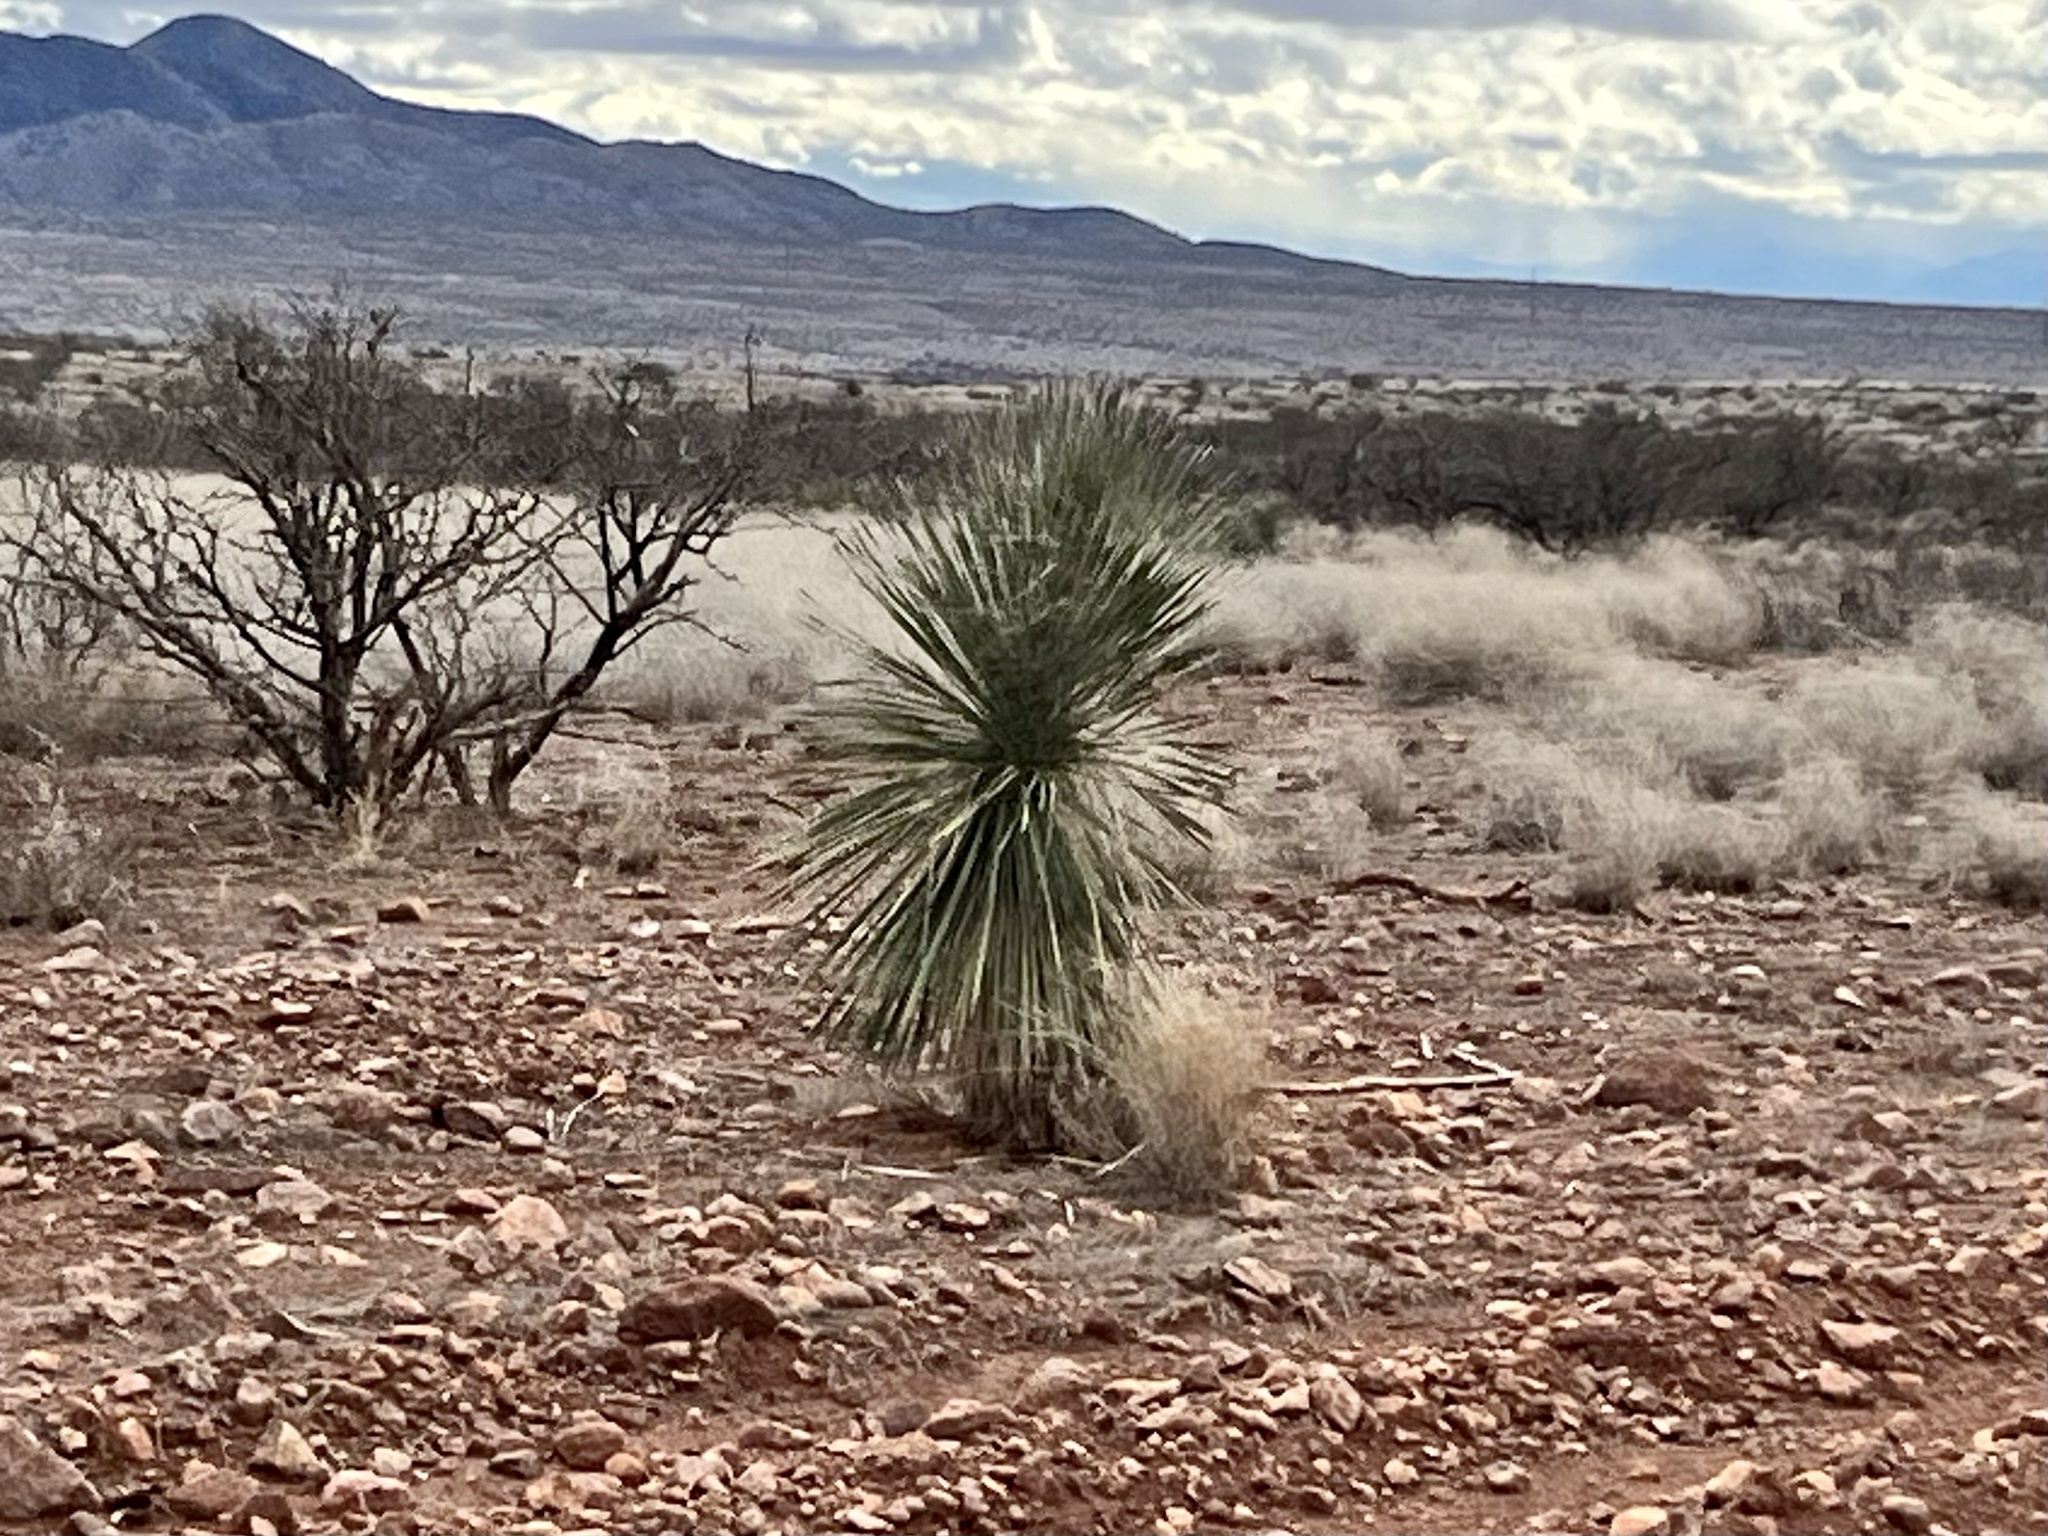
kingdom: Plantae
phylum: Tracheophyta
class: Liliopsida
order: Asparagales
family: Asparagaceae
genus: Yucca
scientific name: Yucca elata
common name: Palmella
